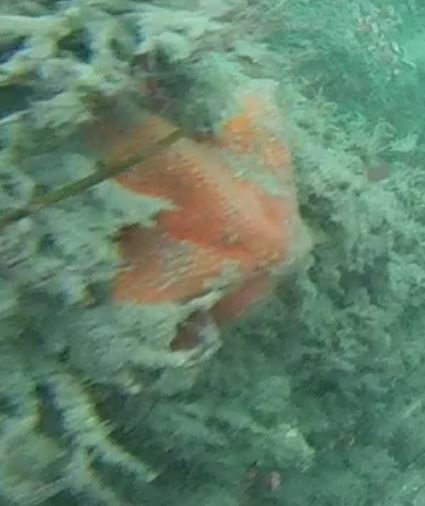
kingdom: Animalia
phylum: Echinodermata
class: Asteroidea
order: Valvatida
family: Asterinidae
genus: Patiria
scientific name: Patiria miniata
